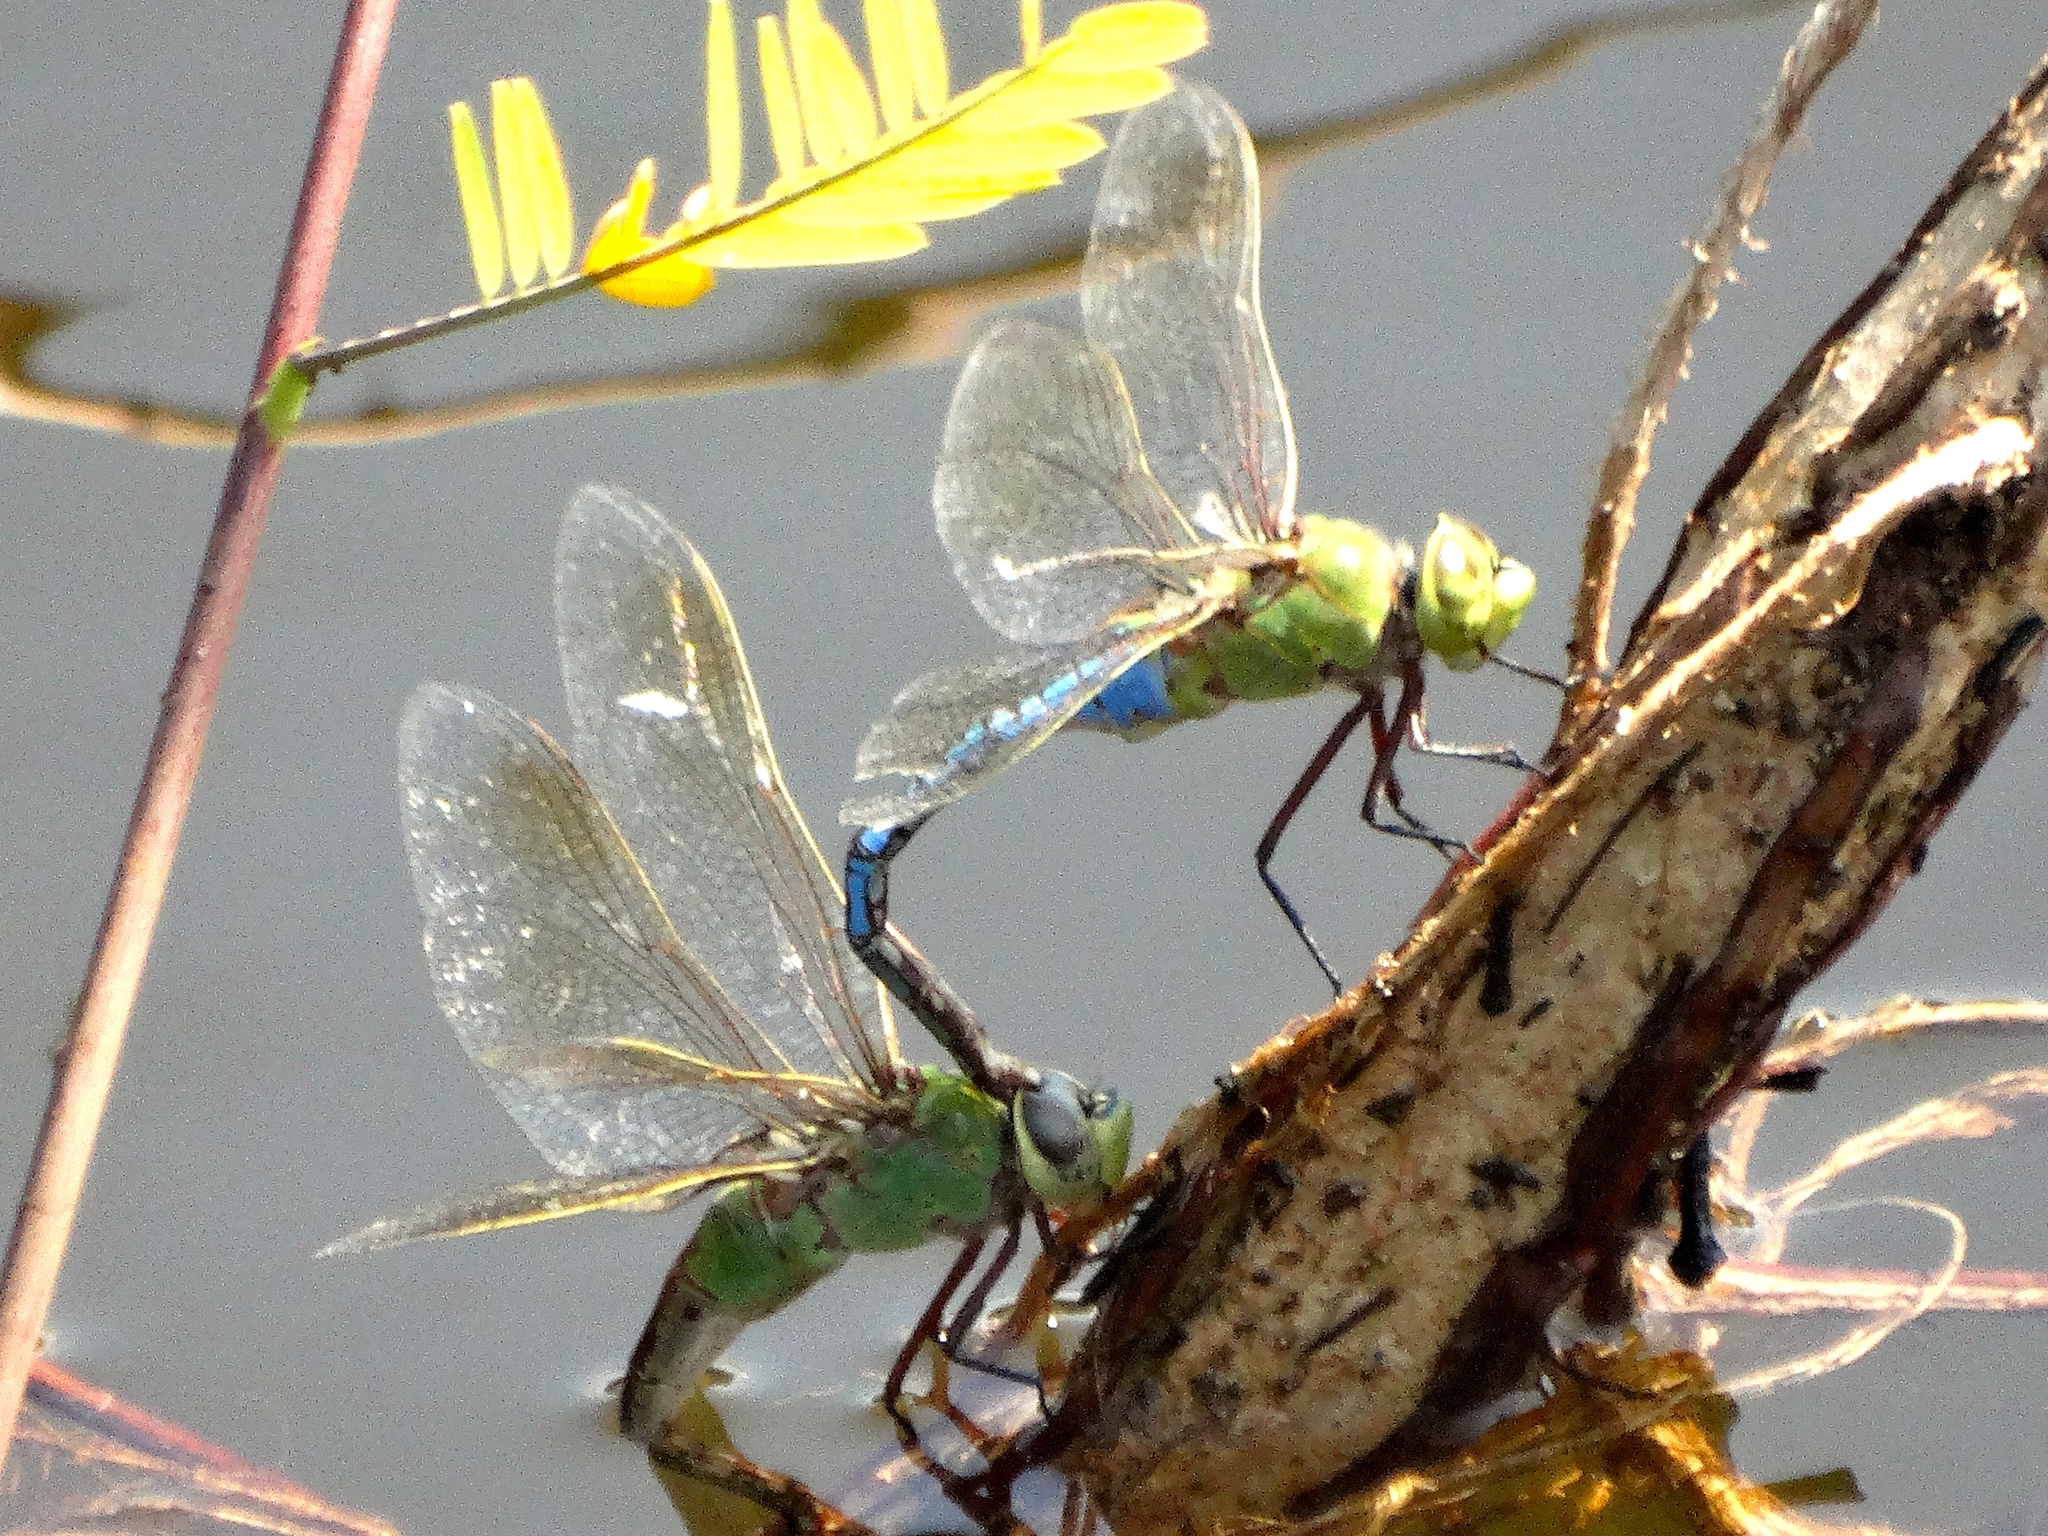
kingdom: Animalia
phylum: Arthropoda
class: Insecta
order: Odonata
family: Aeshnidae
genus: Anax
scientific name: Anax junius
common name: Common green darner
